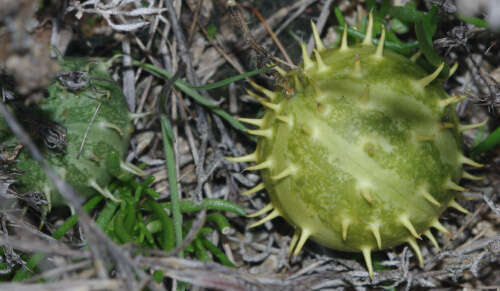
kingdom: Plantae
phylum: Tracheophyta
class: Magnoliopsida
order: Cucurbitales
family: Cucurbitaceae
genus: Cucumis
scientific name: Cucumis myriocarpus
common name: Gooseberry cucumber
